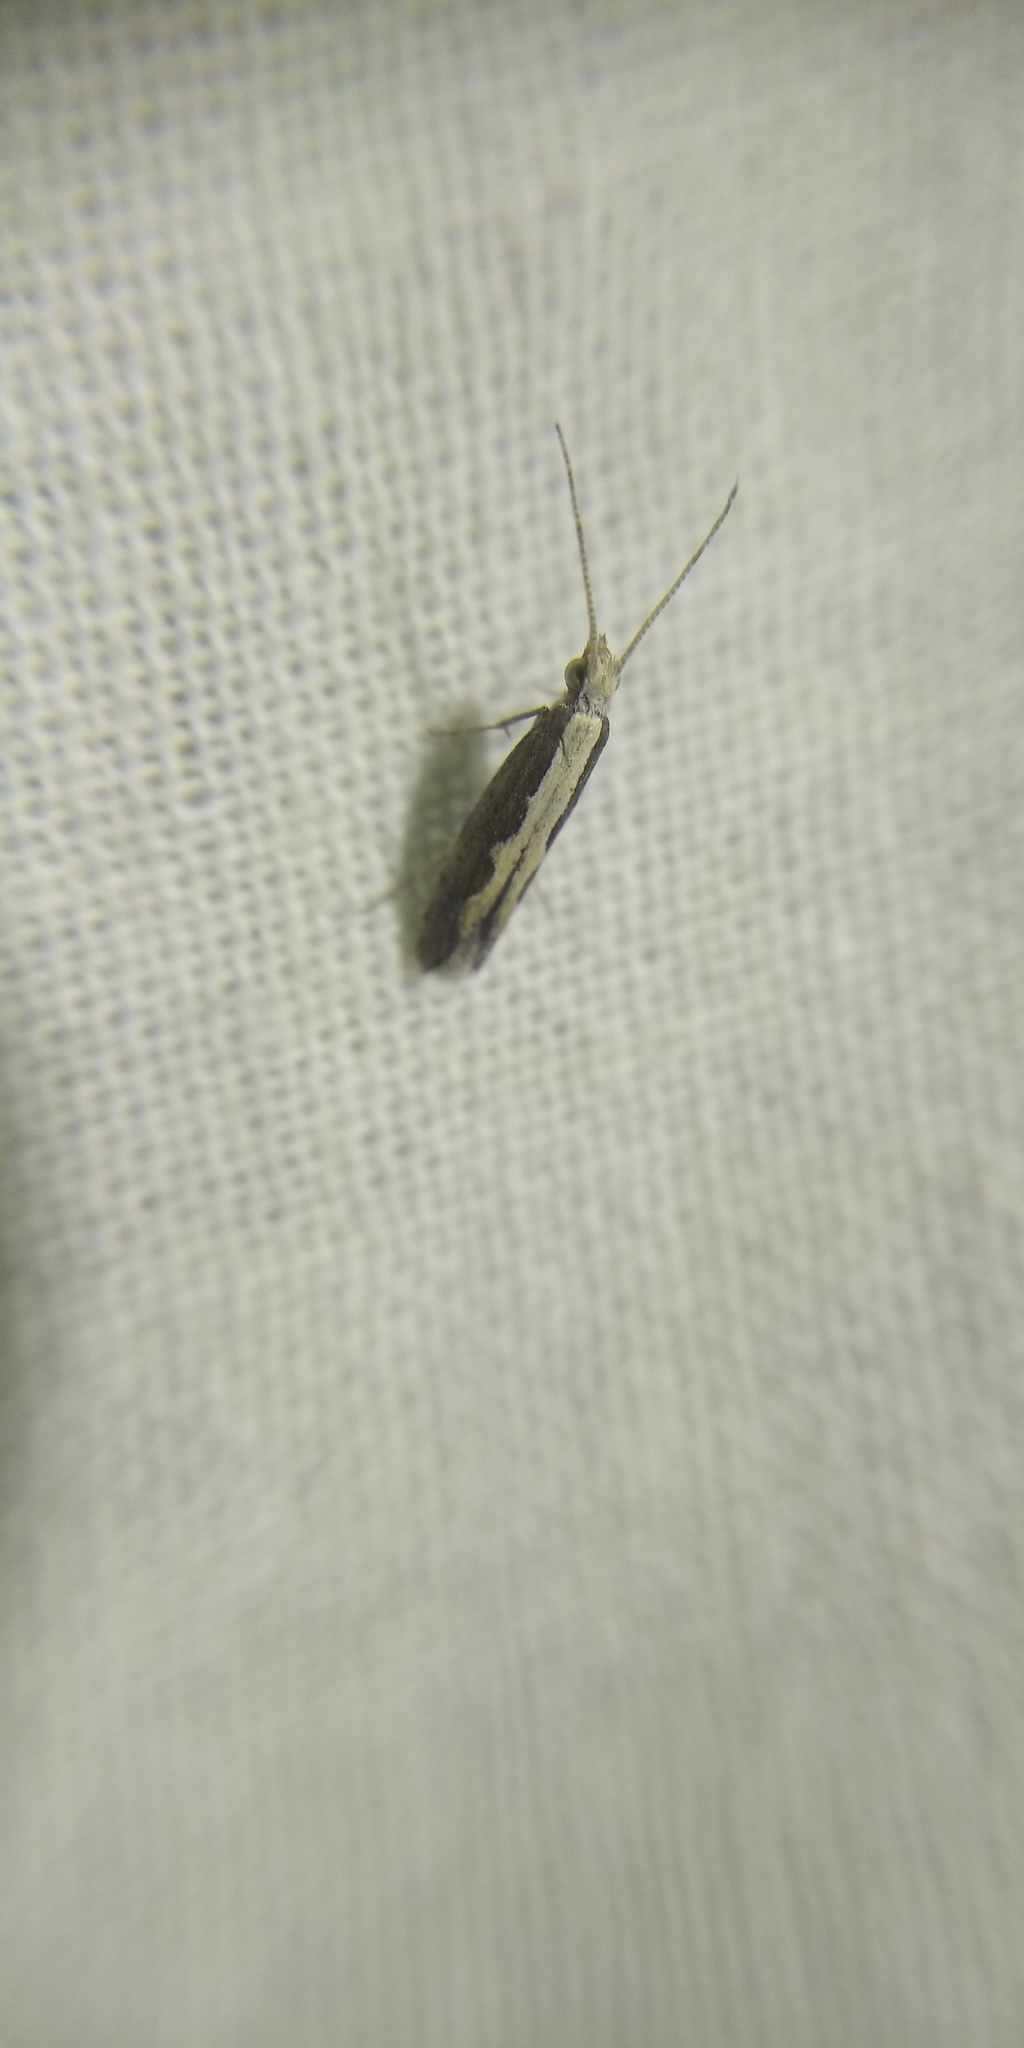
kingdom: Animalia
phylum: Arthropoda
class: Insecta
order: Lepidoptera
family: Plutellidae
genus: Plutella
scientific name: Plutella xylostella
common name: Diamond-back moth
